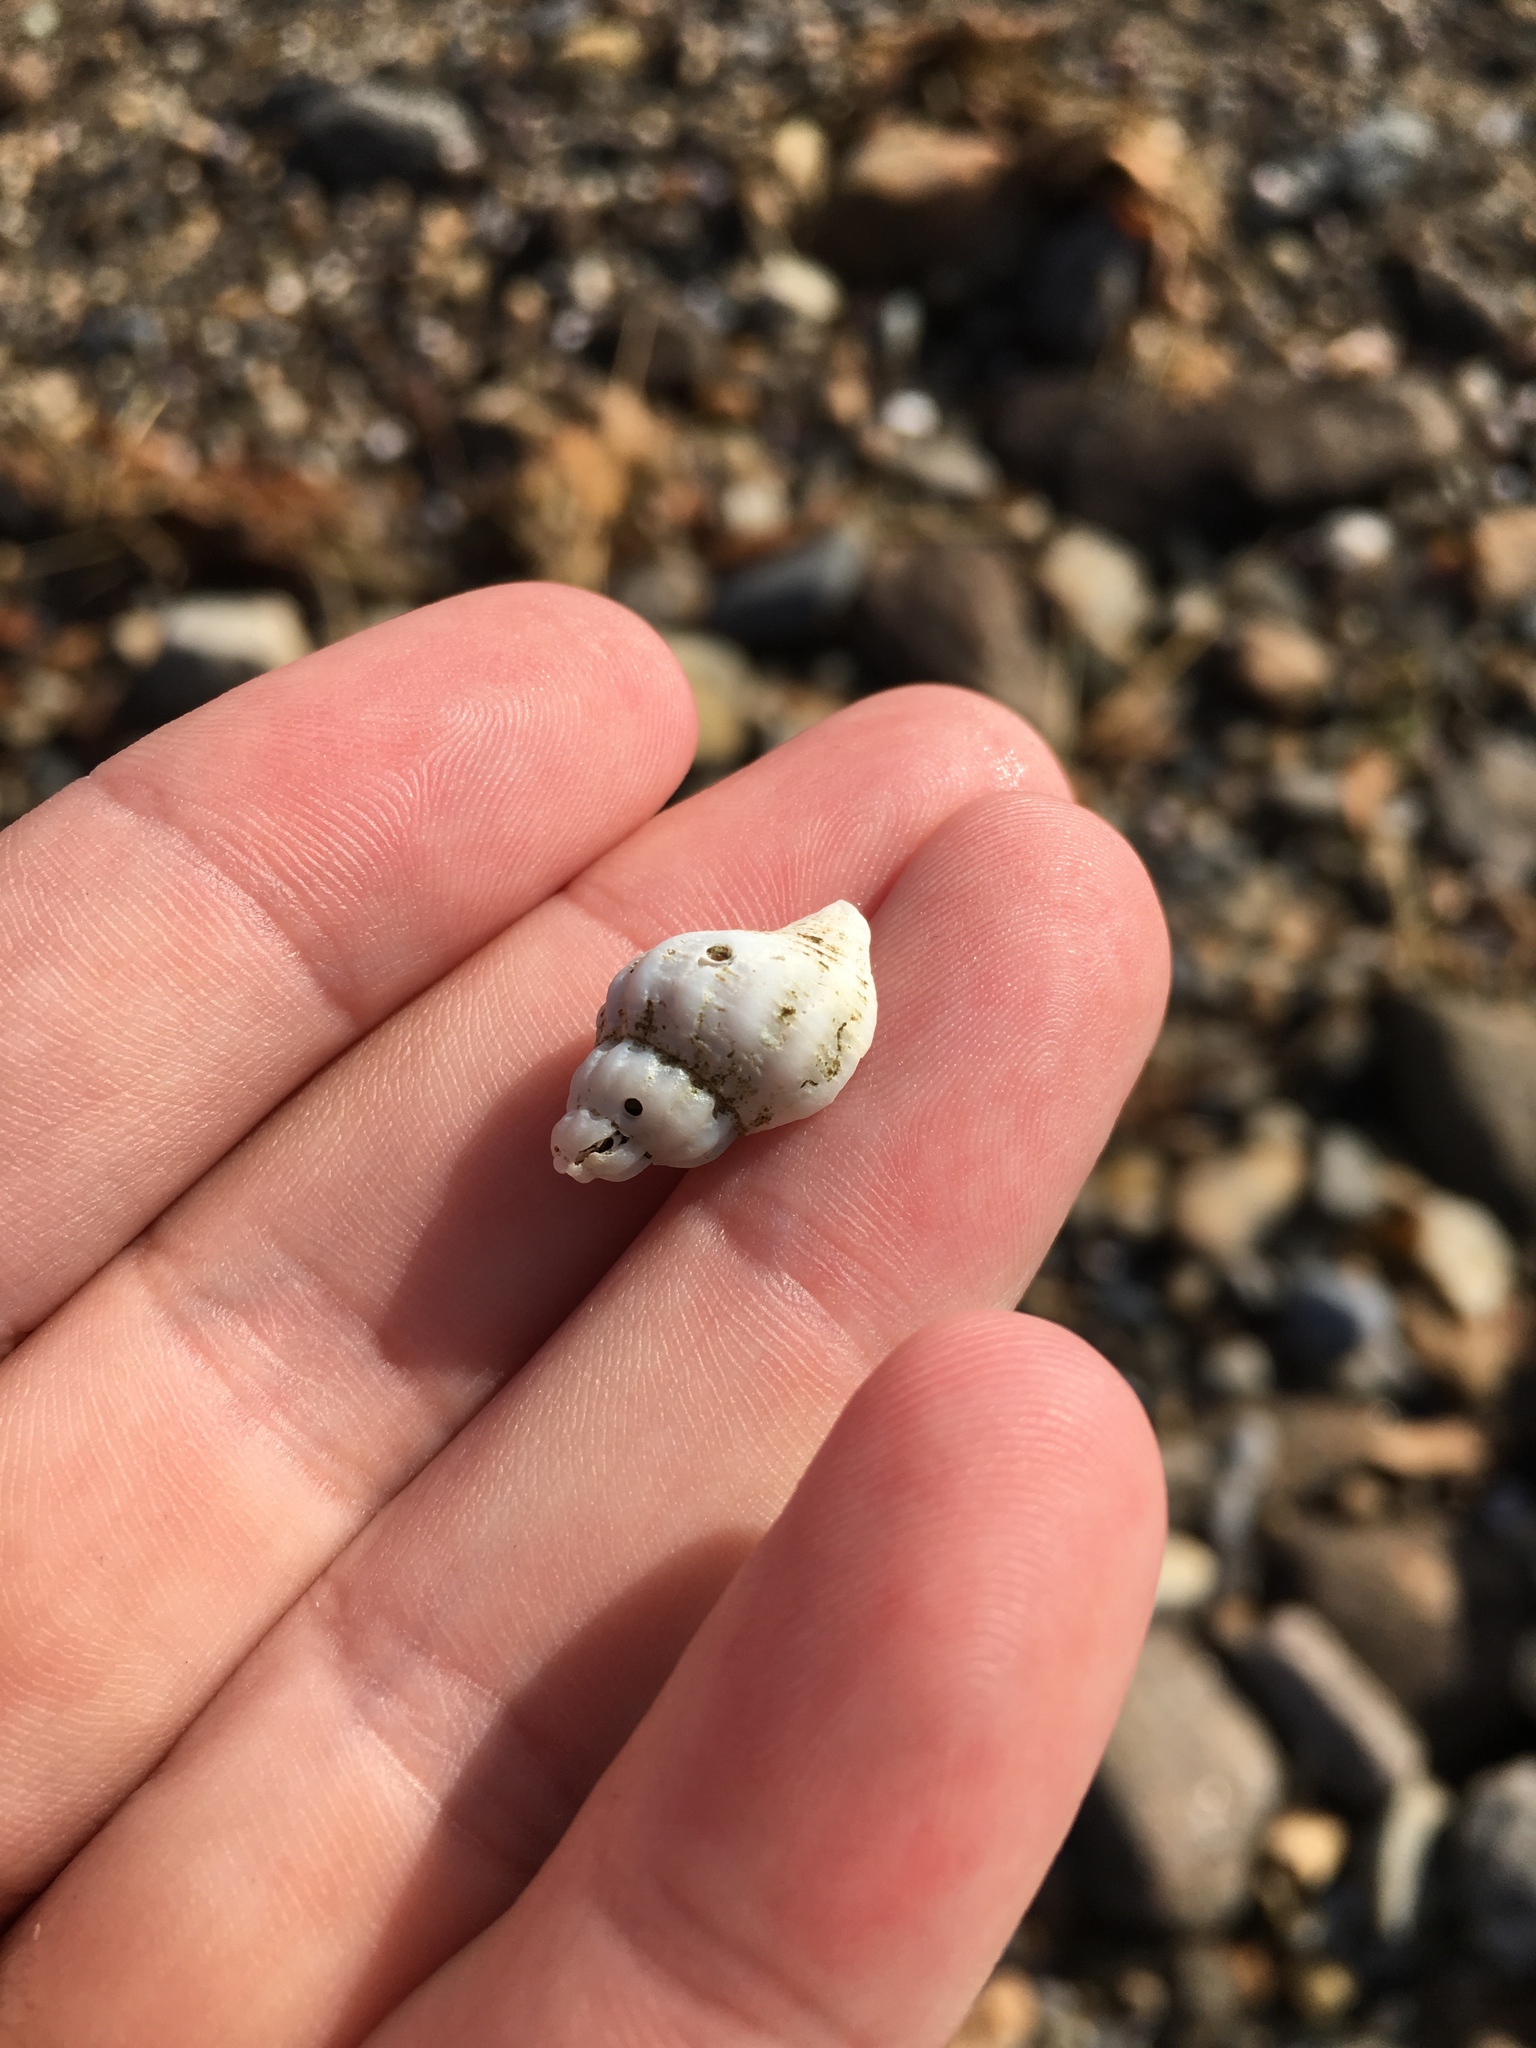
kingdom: Animalia
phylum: Mollusca
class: Gastropoda
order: Neogastropoda
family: Muricidae
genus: Urosalpinx
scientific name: Urosalpinx cinerea
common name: American sting winkle
